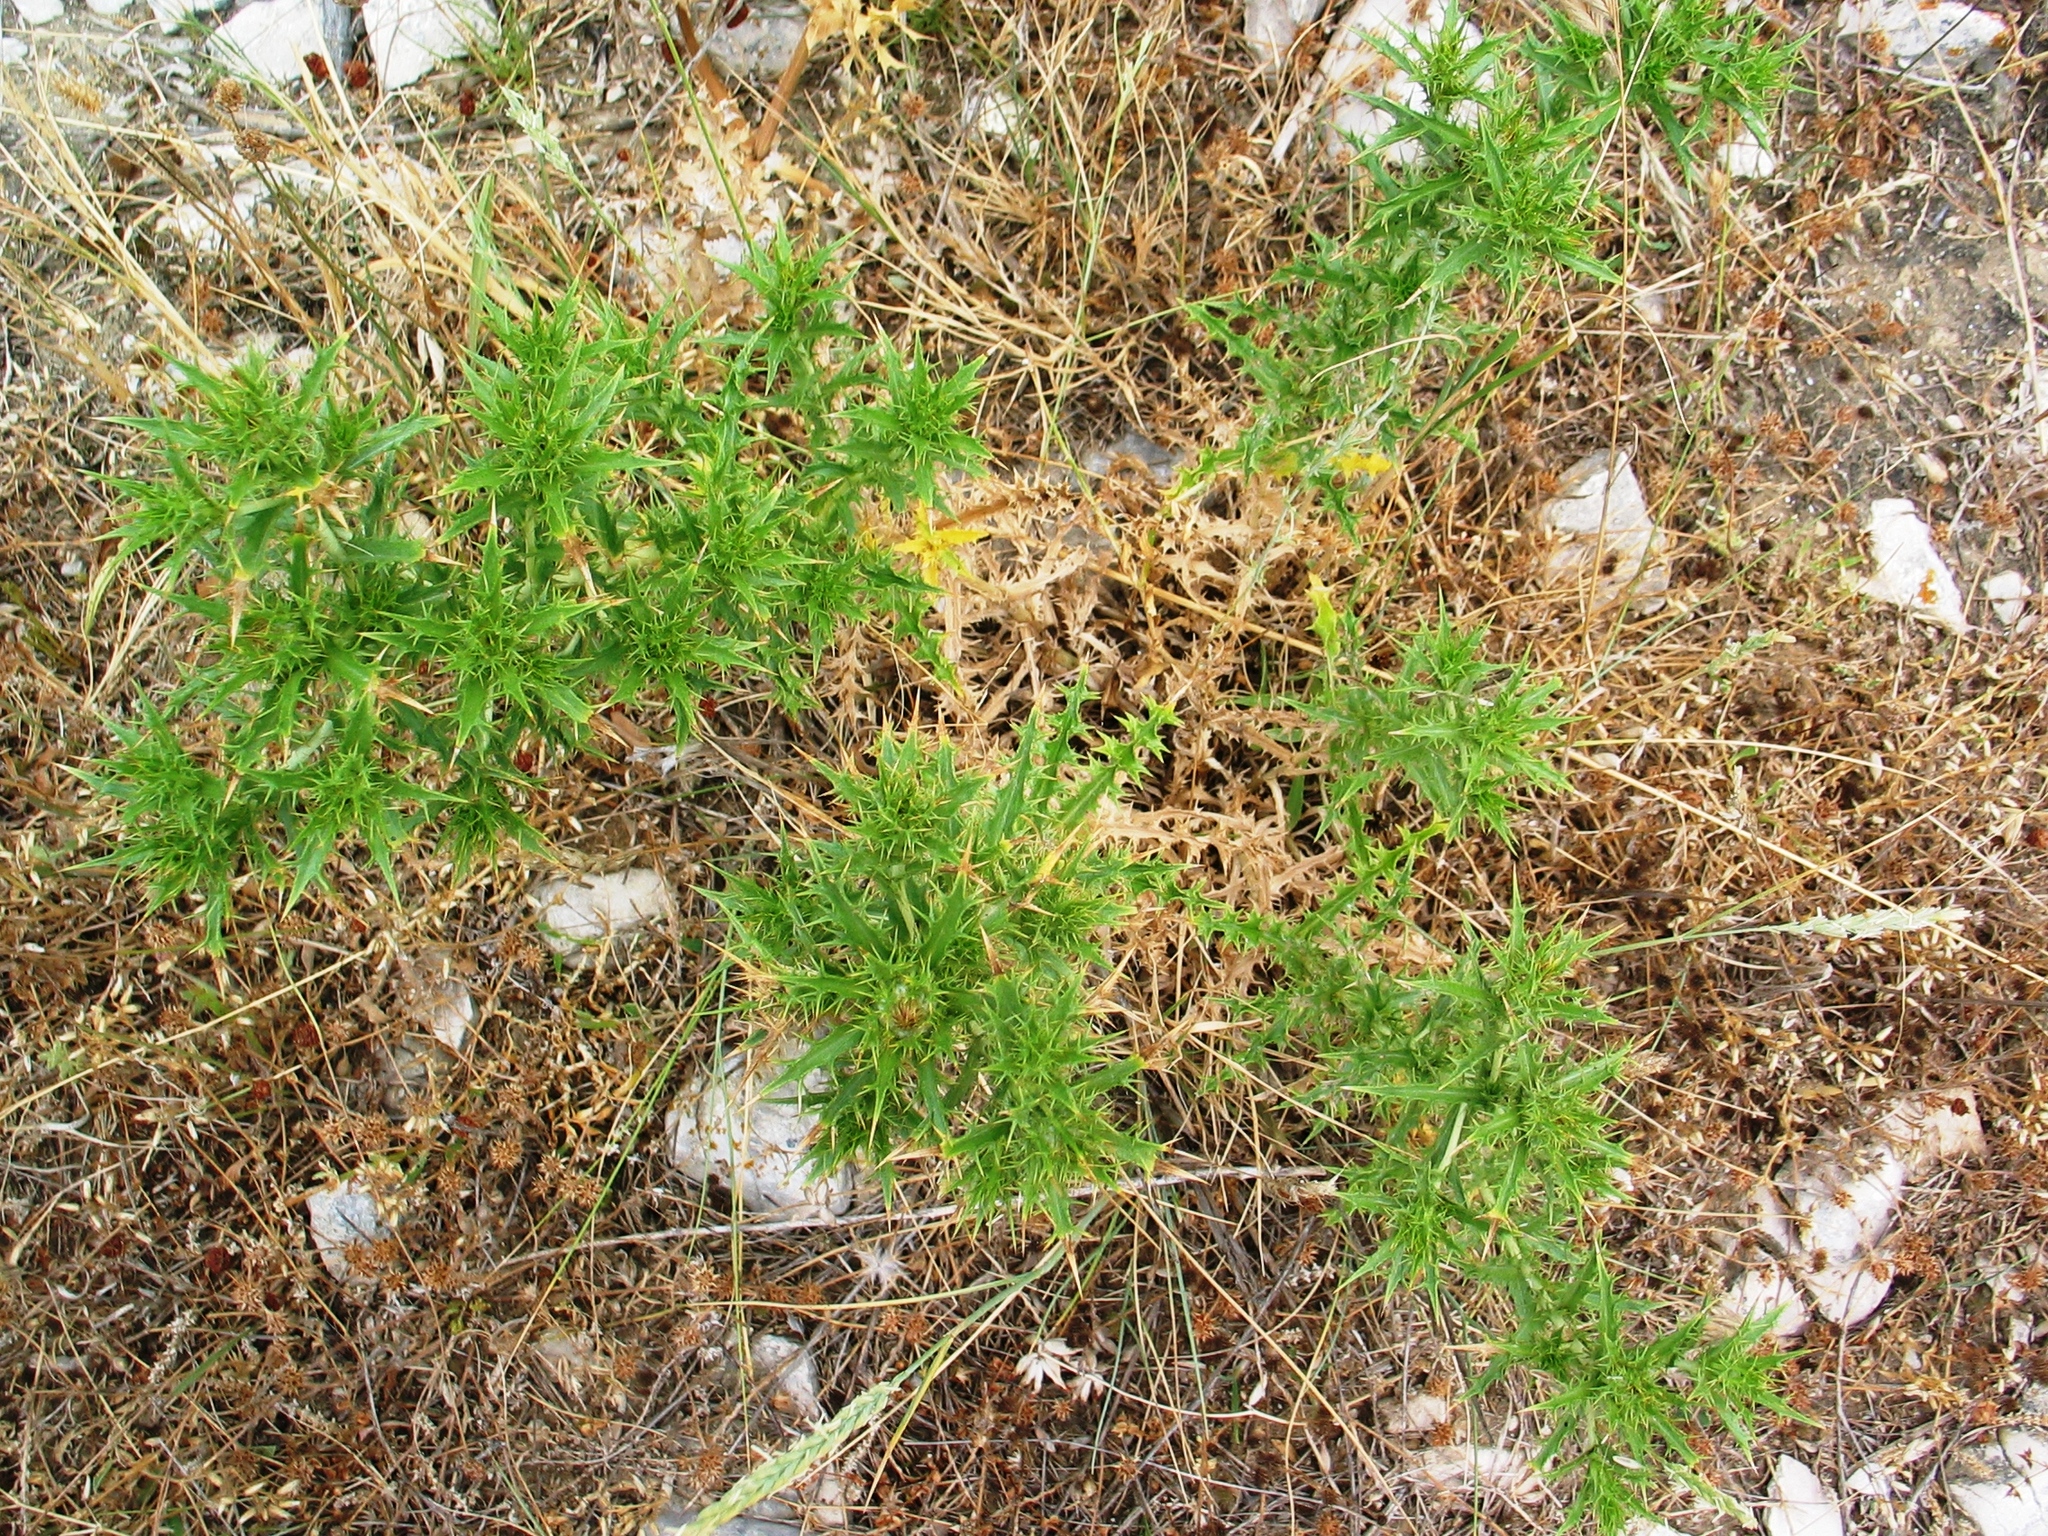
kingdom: Plantae
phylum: Tracheophyta
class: Magnoliopsida
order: Asterales
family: Asteraceae
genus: Carlina
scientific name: Carlina corymbosa
